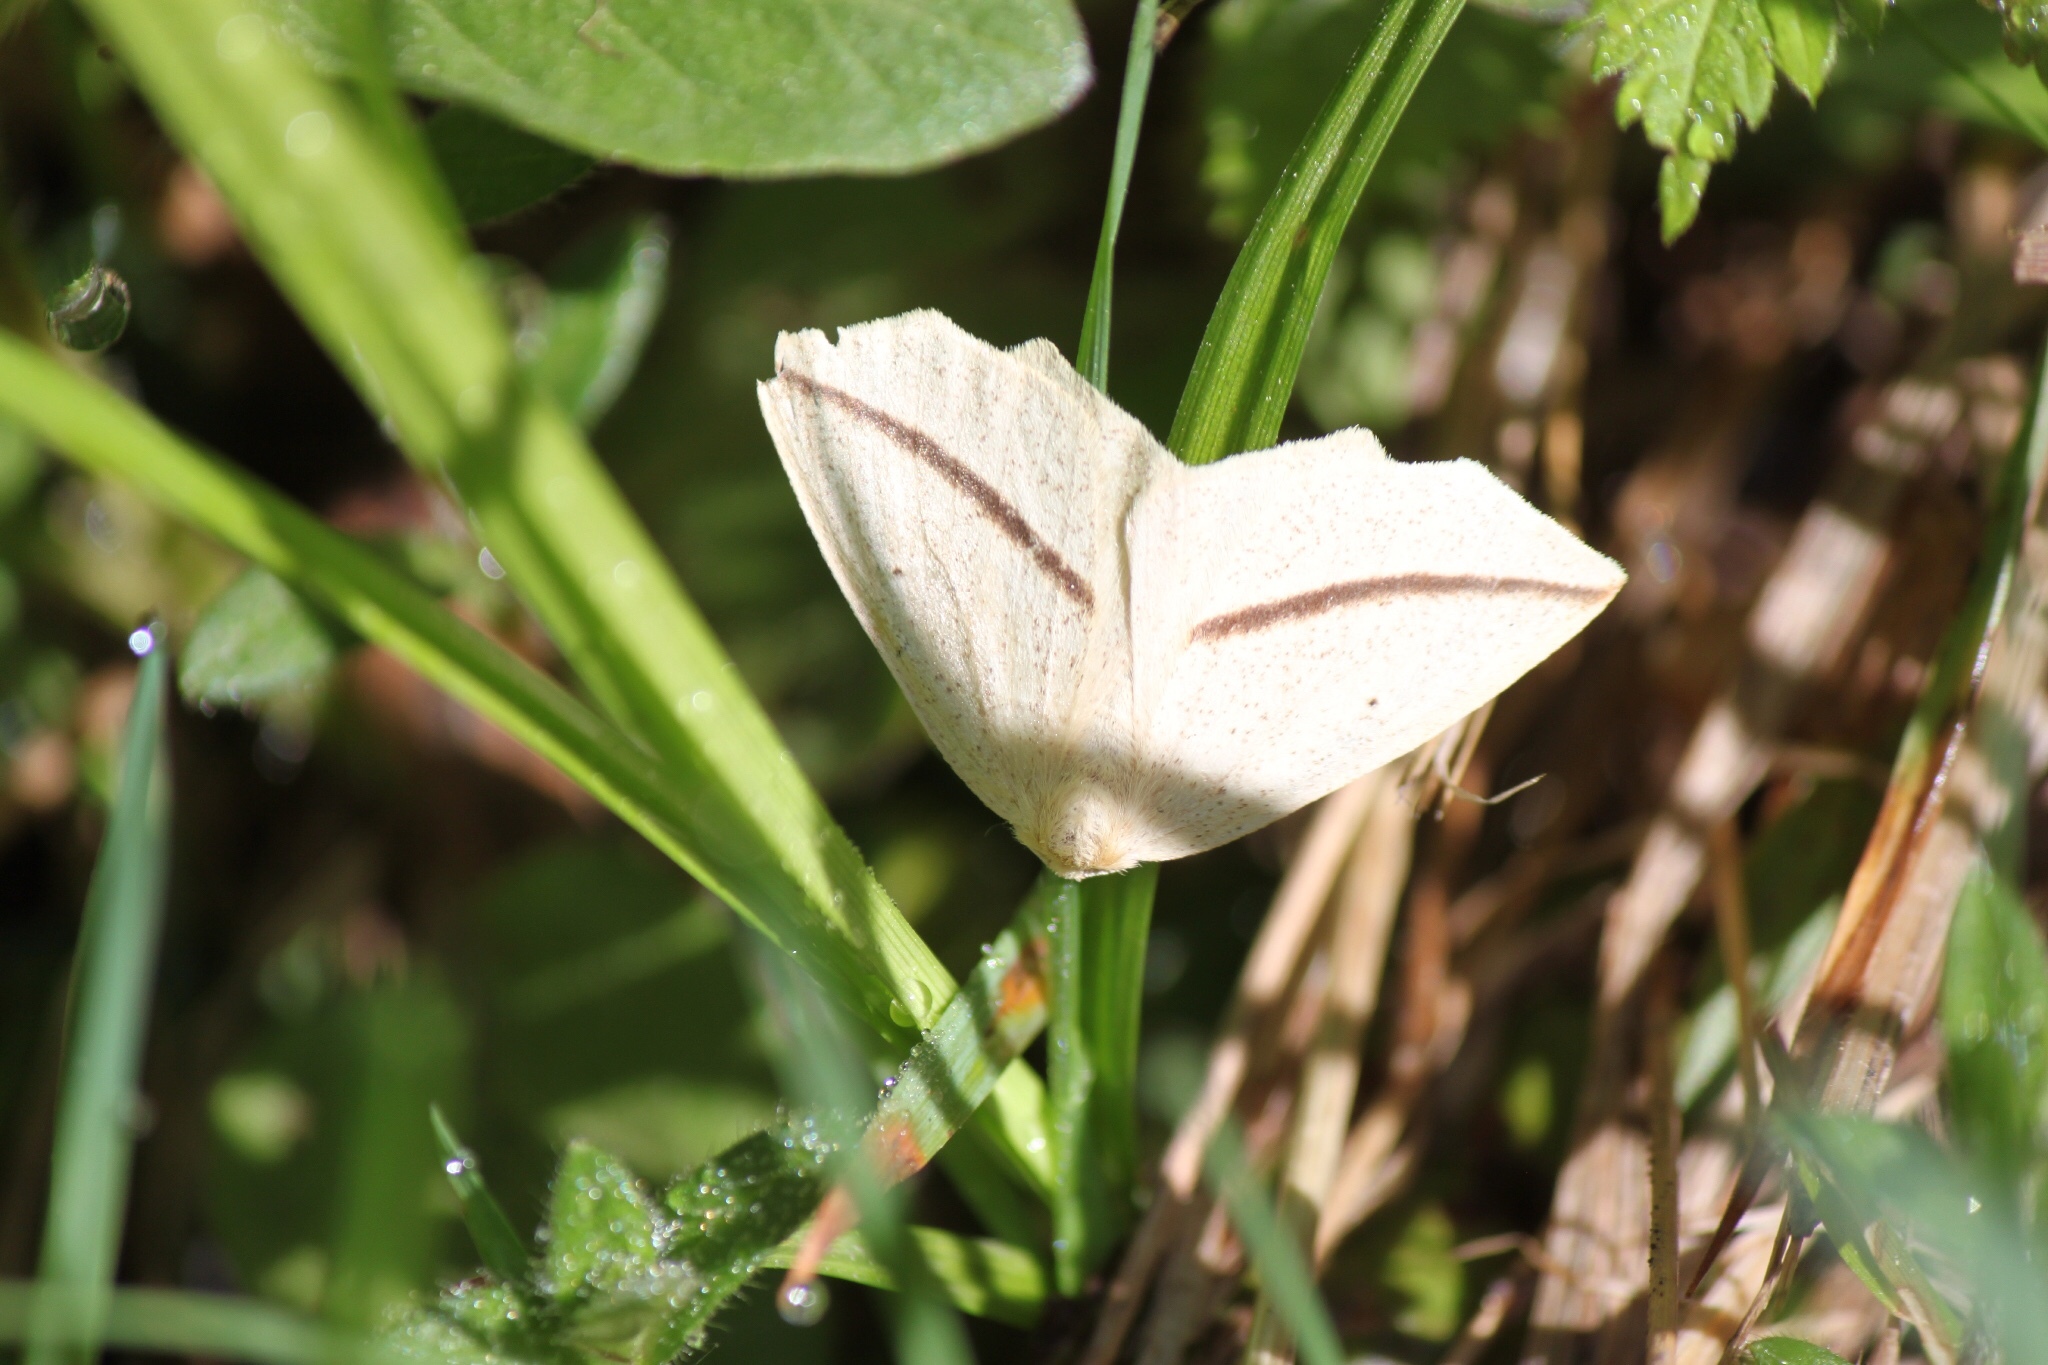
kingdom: Animalia
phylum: Arthropoda
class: Insecta
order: Lepidoptera
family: Geometridae
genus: Tetracis
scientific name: Tetracis crocallata
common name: Yellow slant-line
